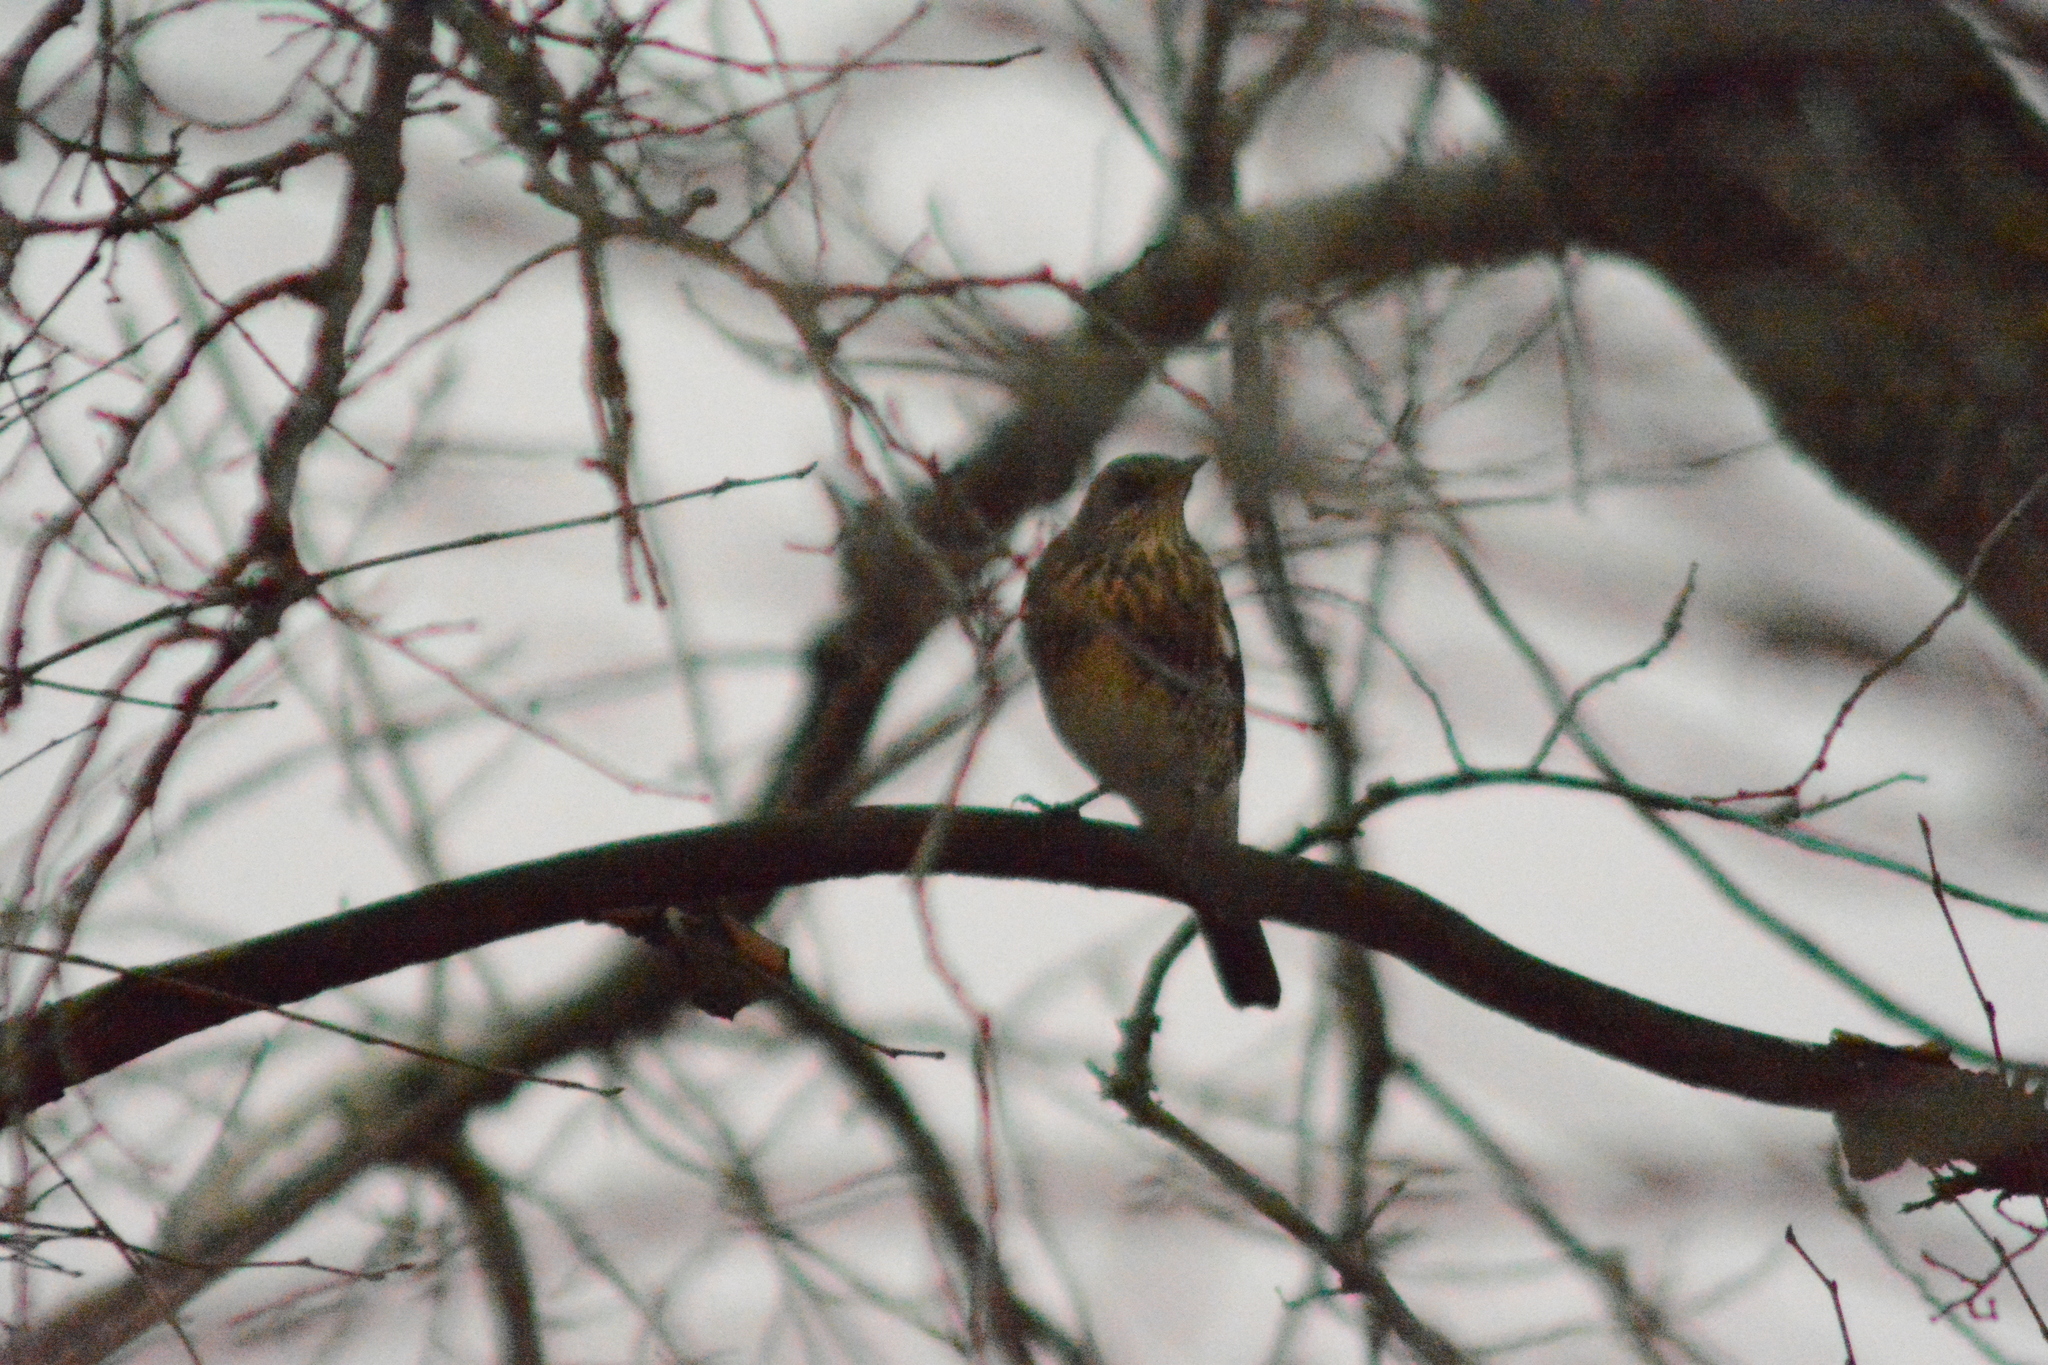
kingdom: Animalia
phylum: Chordata
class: Aves
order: Passeriformes
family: Turdidae
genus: Turdus
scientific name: Turdus pilaris
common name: Fieldfare
